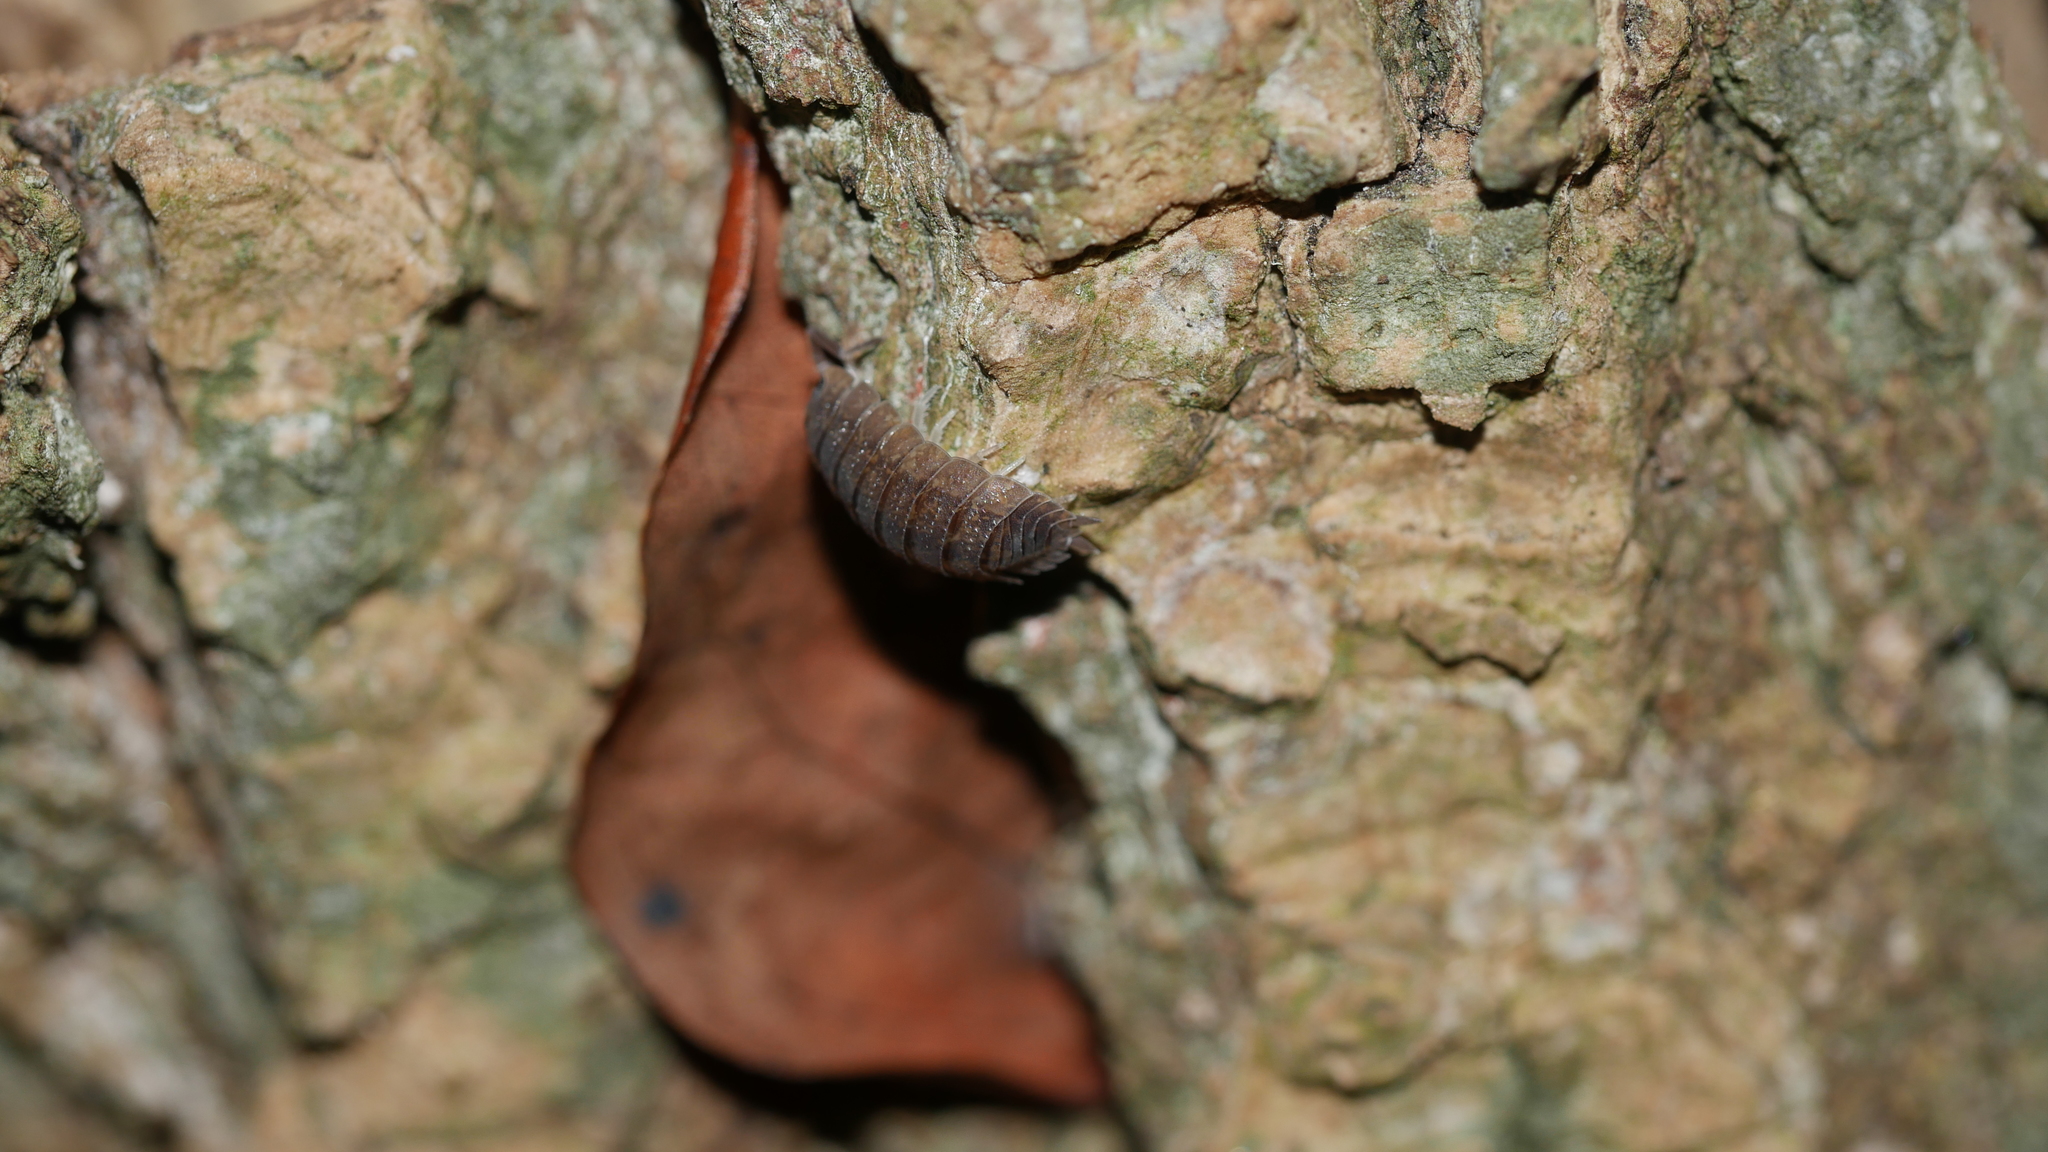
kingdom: Animalia
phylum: Arthropoda
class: Malacostraca
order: Isopoda
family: Porcellionidae
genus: Porcellio
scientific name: Porcellio scaber
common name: Common rough woodlouse
